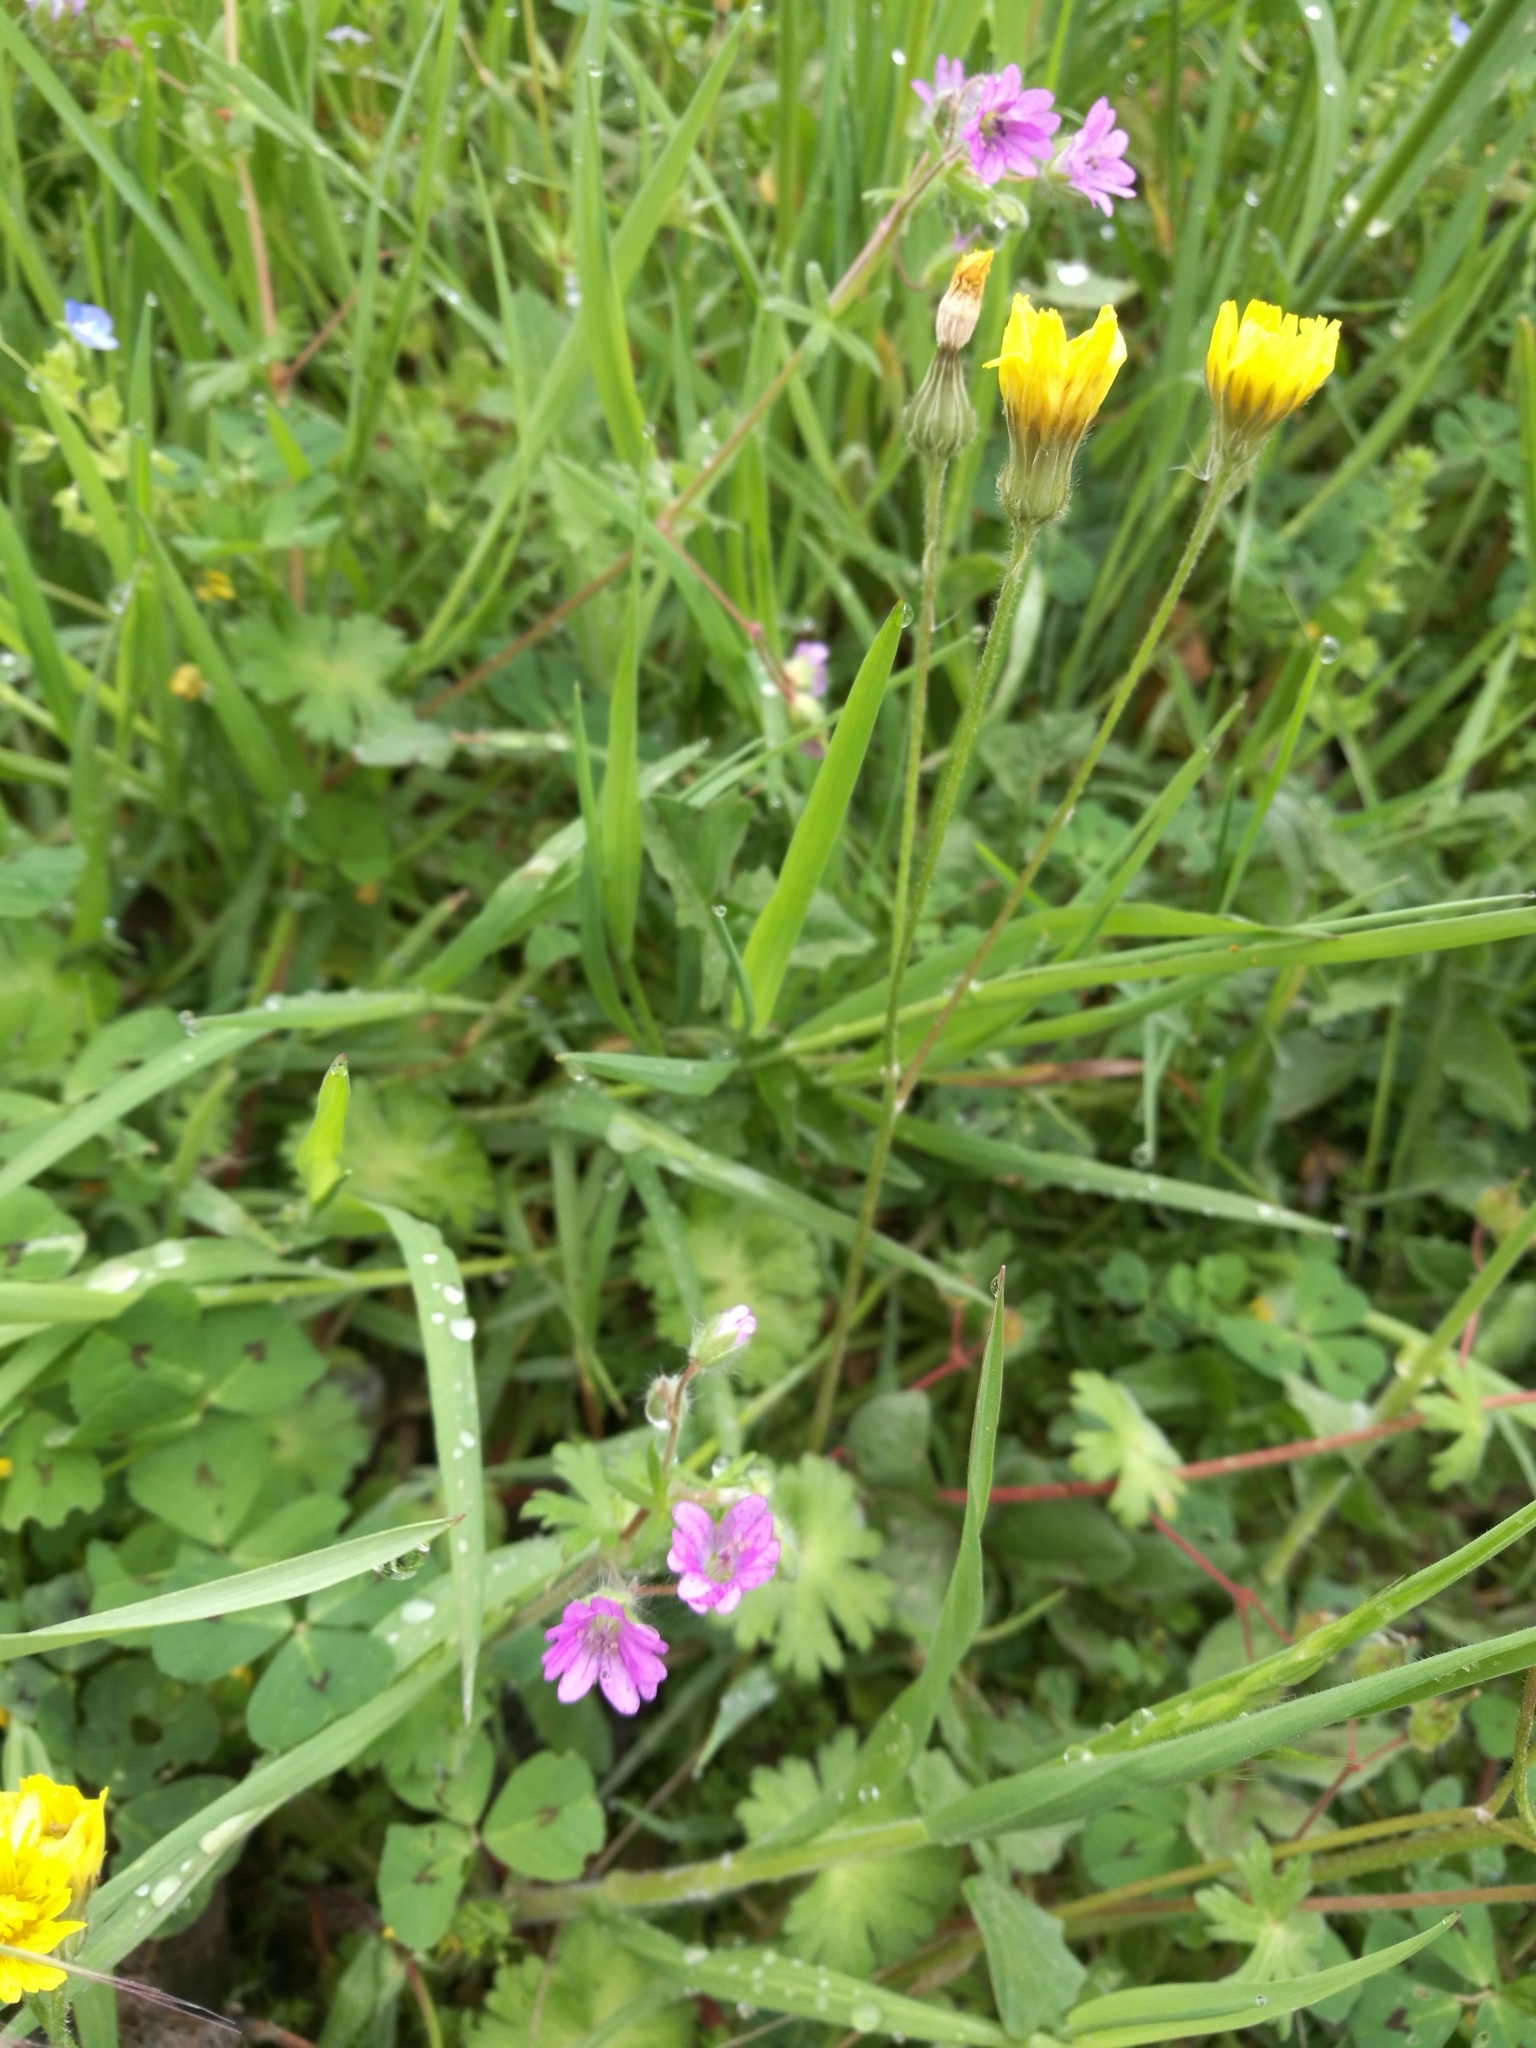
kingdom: Plantae
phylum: Tracheophyta
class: Magnoliopsida
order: Geraniales
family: Geraniaceae
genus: Geranium
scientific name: Geranium molle
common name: Dove's-foot crane's-bill
